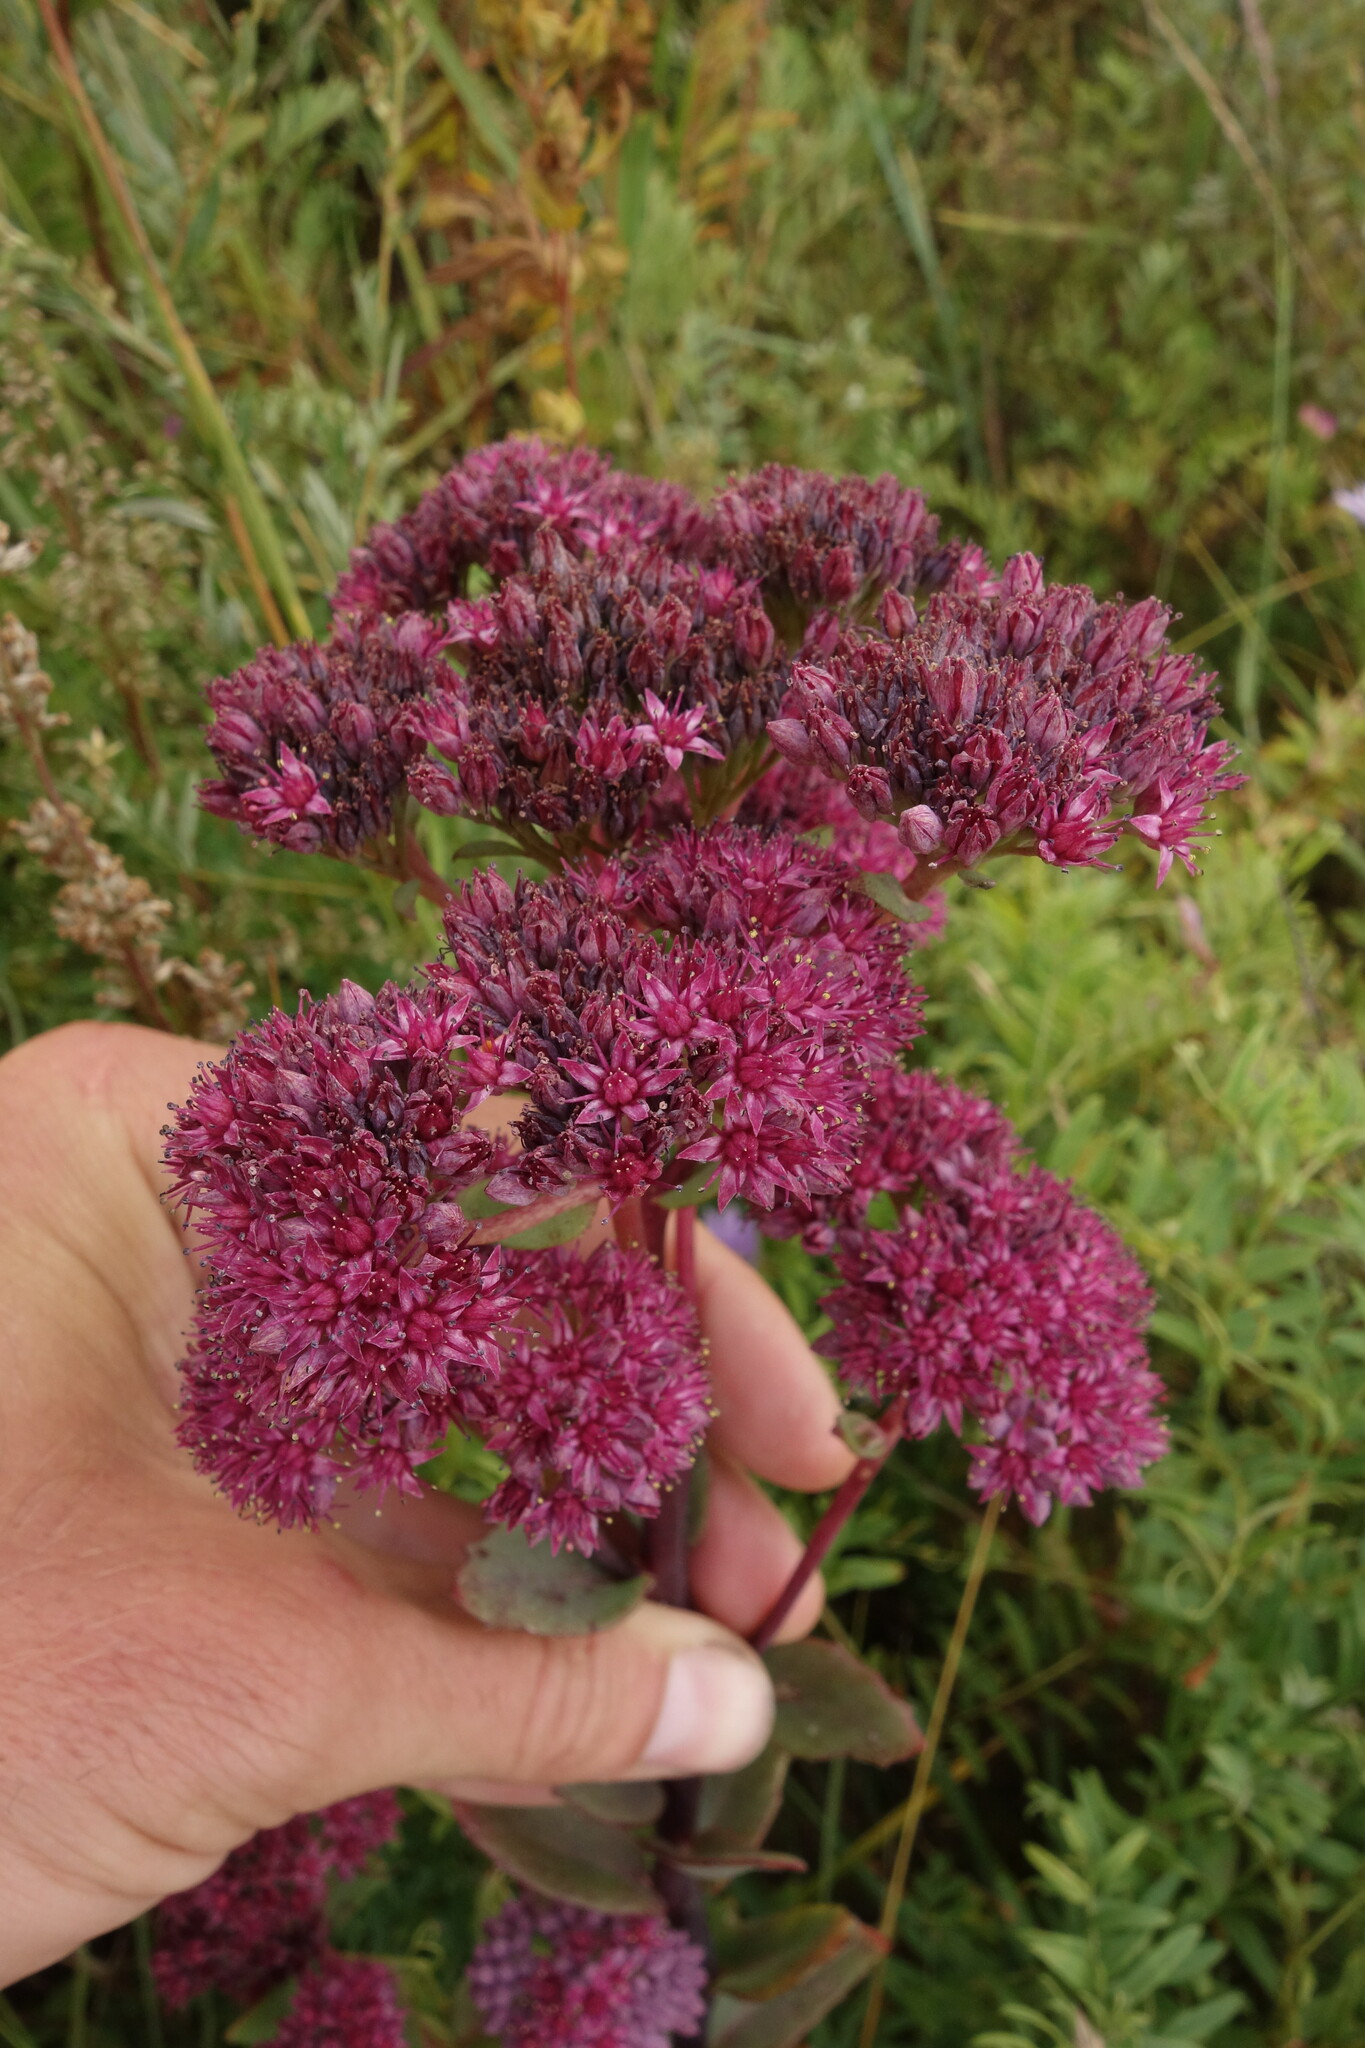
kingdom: Plantae
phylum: Tracheophyta
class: Magnoliopsida
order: Saxifragales
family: Crassulaceae
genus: Hylotelephium
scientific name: Hylotelephium telephium
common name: Live-forever
